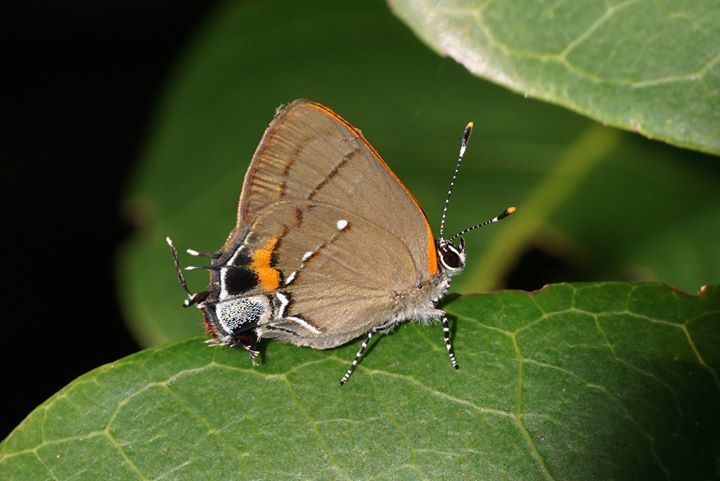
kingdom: Animalia
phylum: Arthropoda
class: Insecta
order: Lepidoptera
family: Lycaenidae
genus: Thecla
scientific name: Thecla angelia
